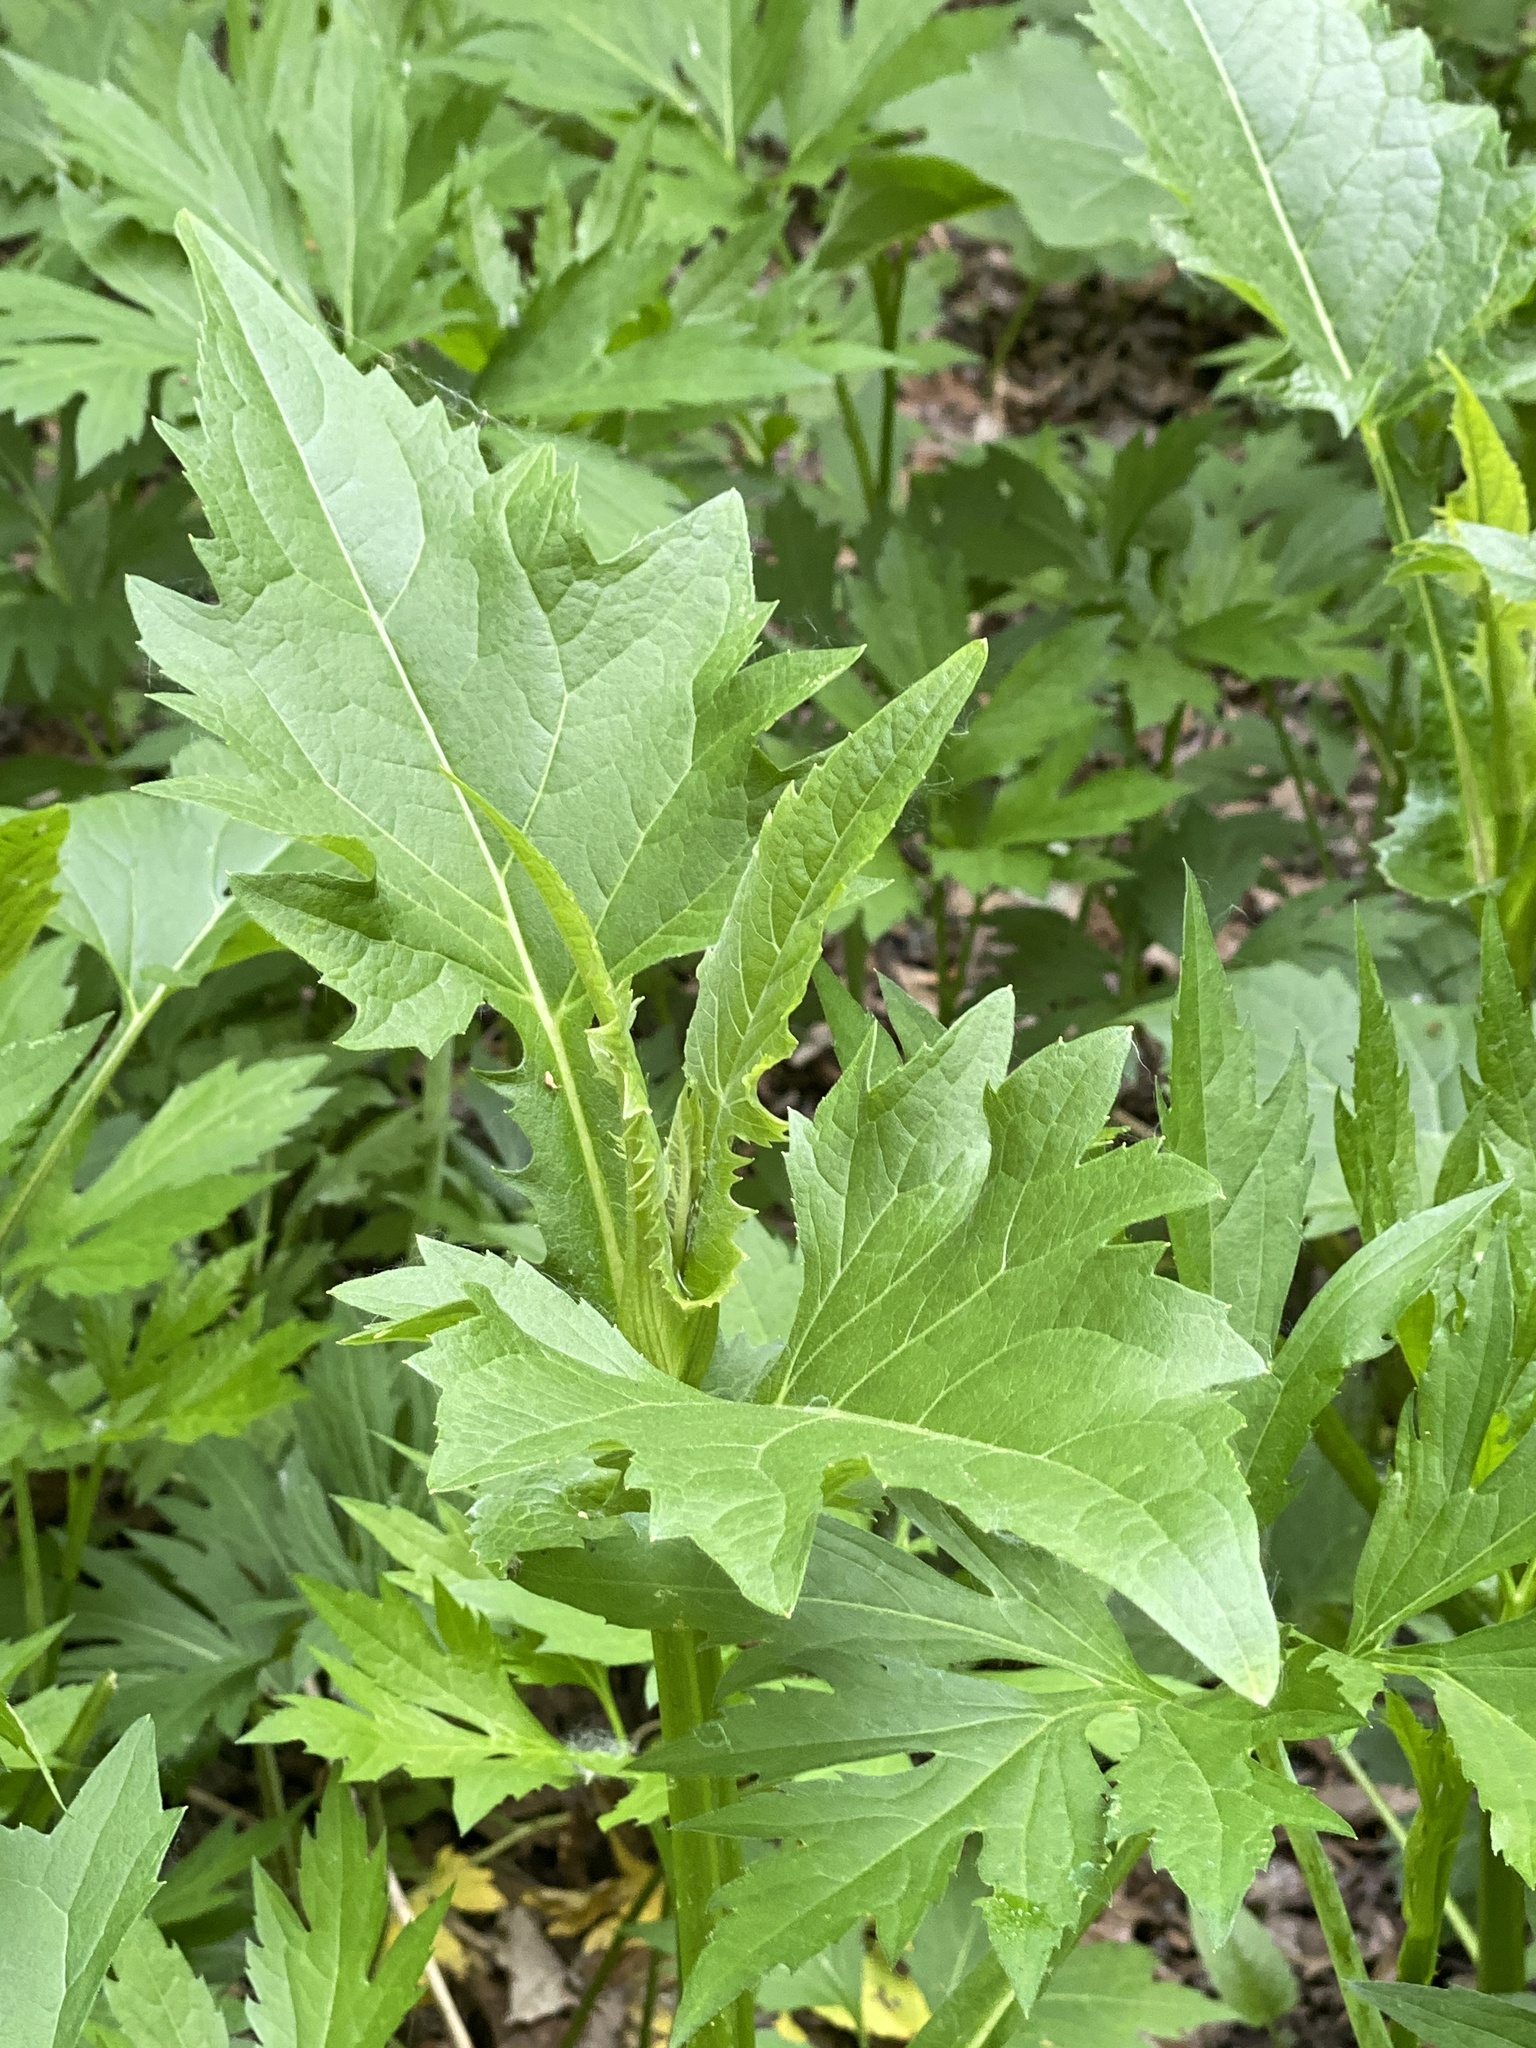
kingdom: Plantae
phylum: Tracheophyta
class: Magnoliopsida
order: Asterales
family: Asteraceae
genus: Silphium
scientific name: Silphium perfoliatum
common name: Cup-plant
